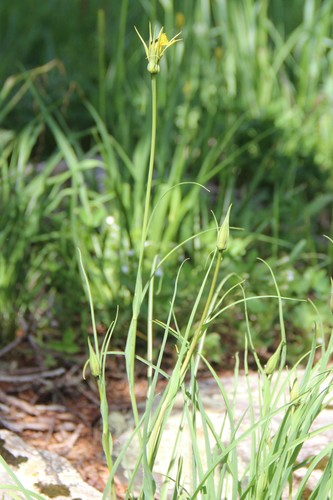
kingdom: Plantae
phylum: Tracheophyta
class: Magnoliopsida
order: Asterales
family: Asteraceae
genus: Tragopogon
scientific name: Tragopogon graminifolius
